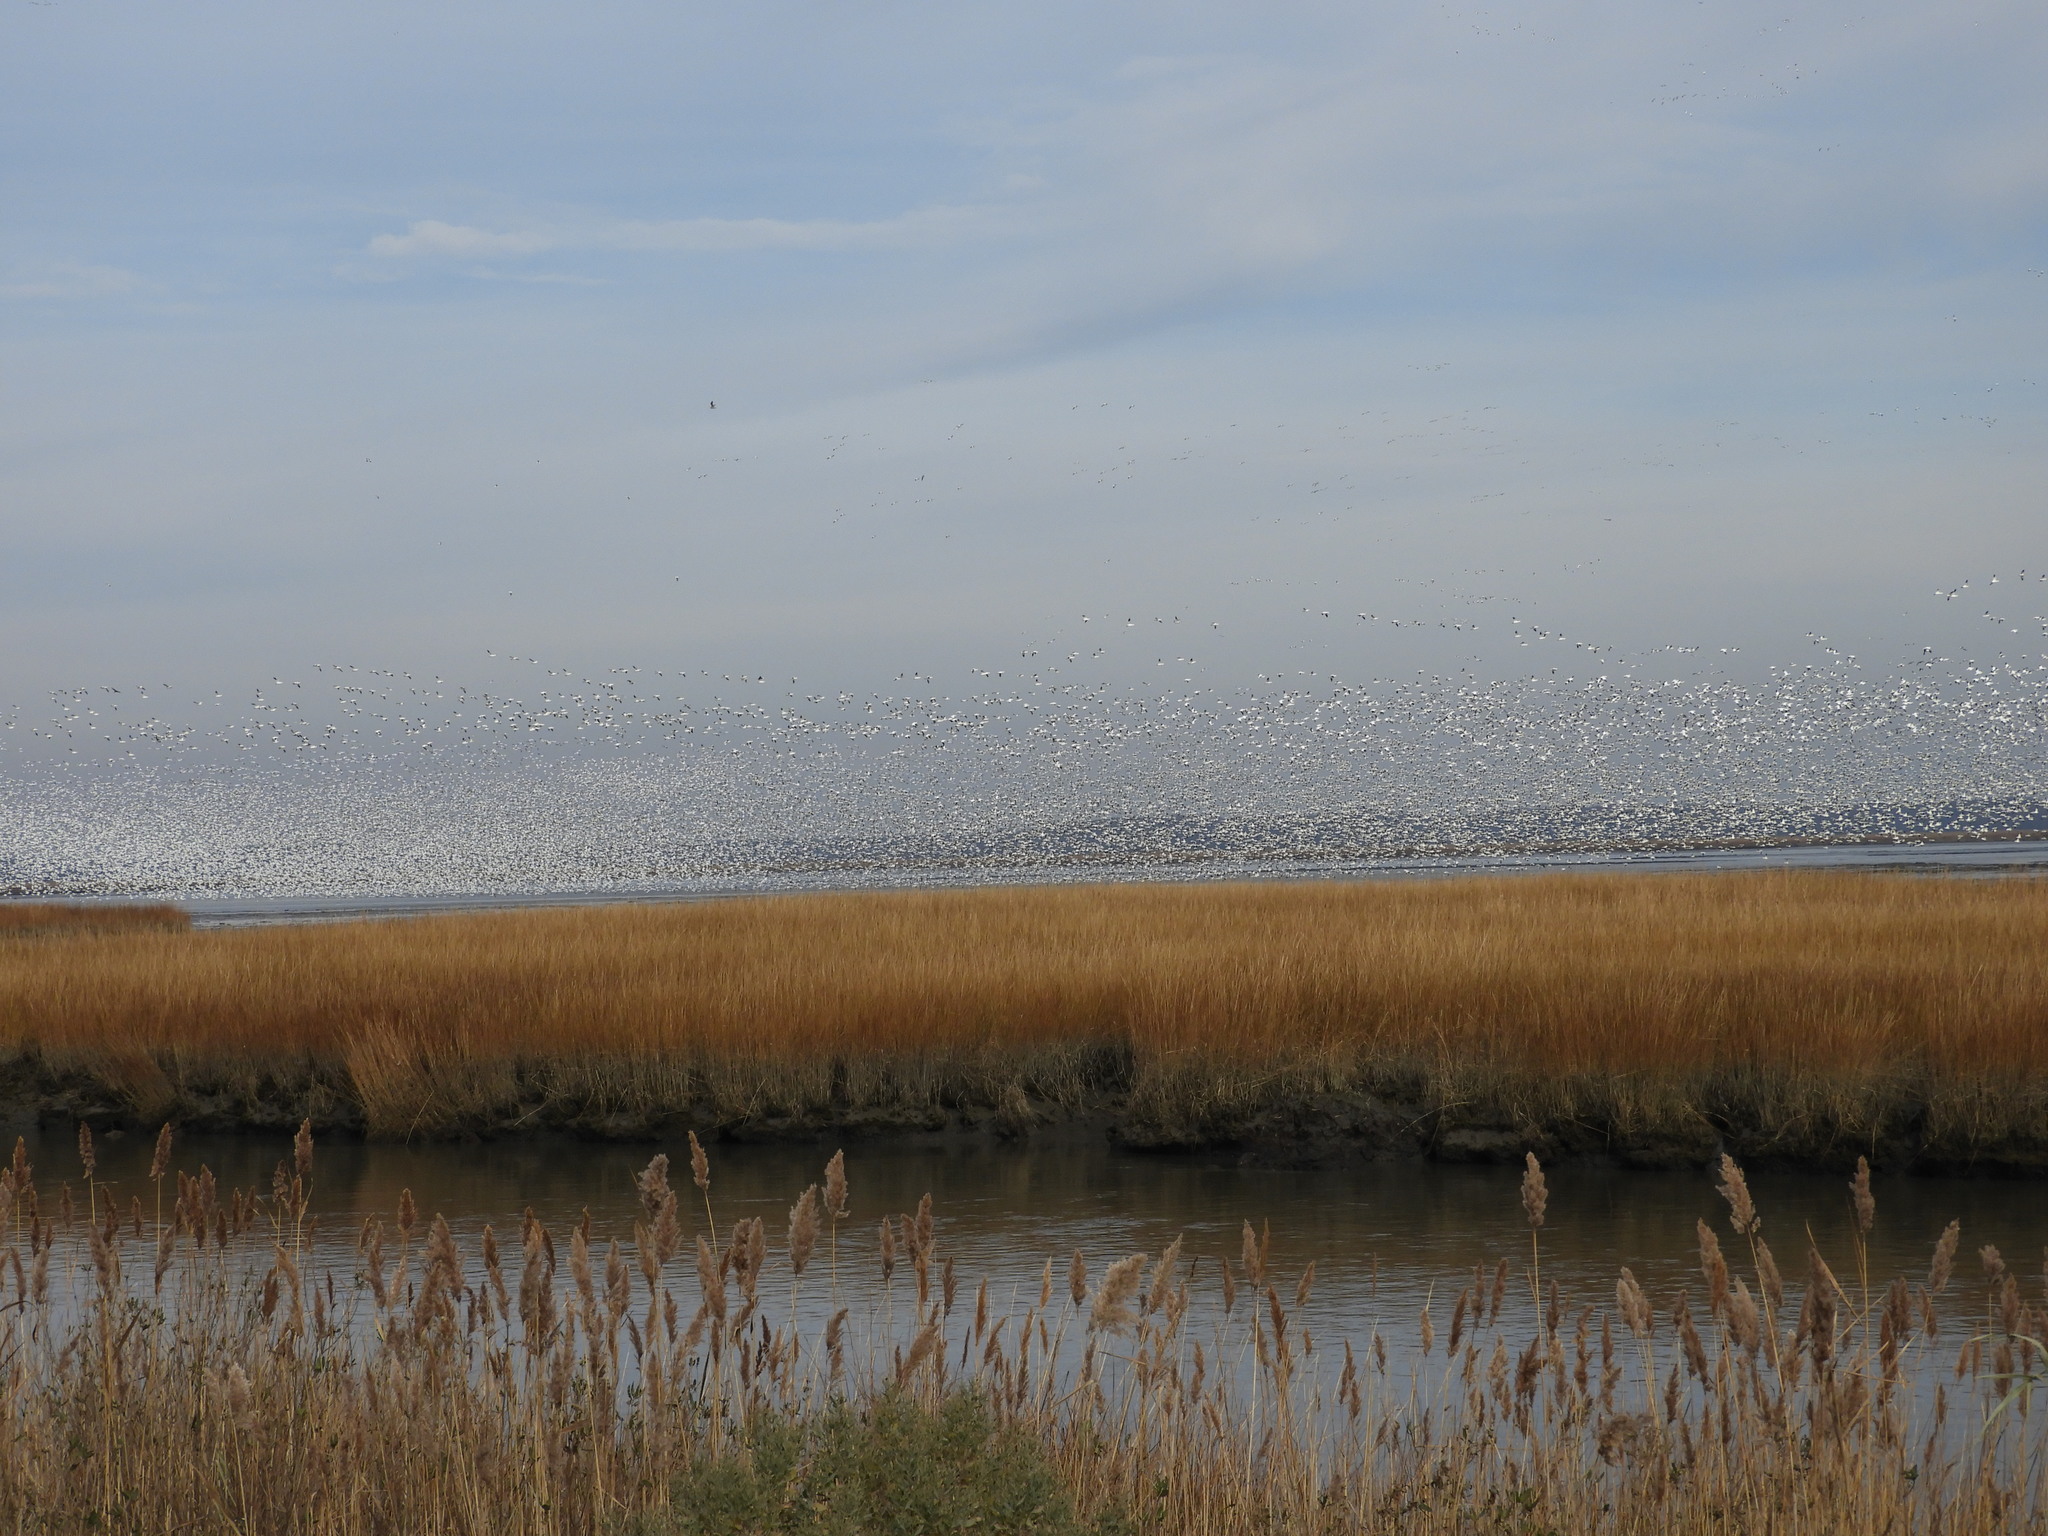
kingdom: Animalia
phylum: Chordata
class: Aves
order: Anseriformes
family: Anatidae
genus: Anser
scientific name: Anser caerulescens
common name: Snow goose
